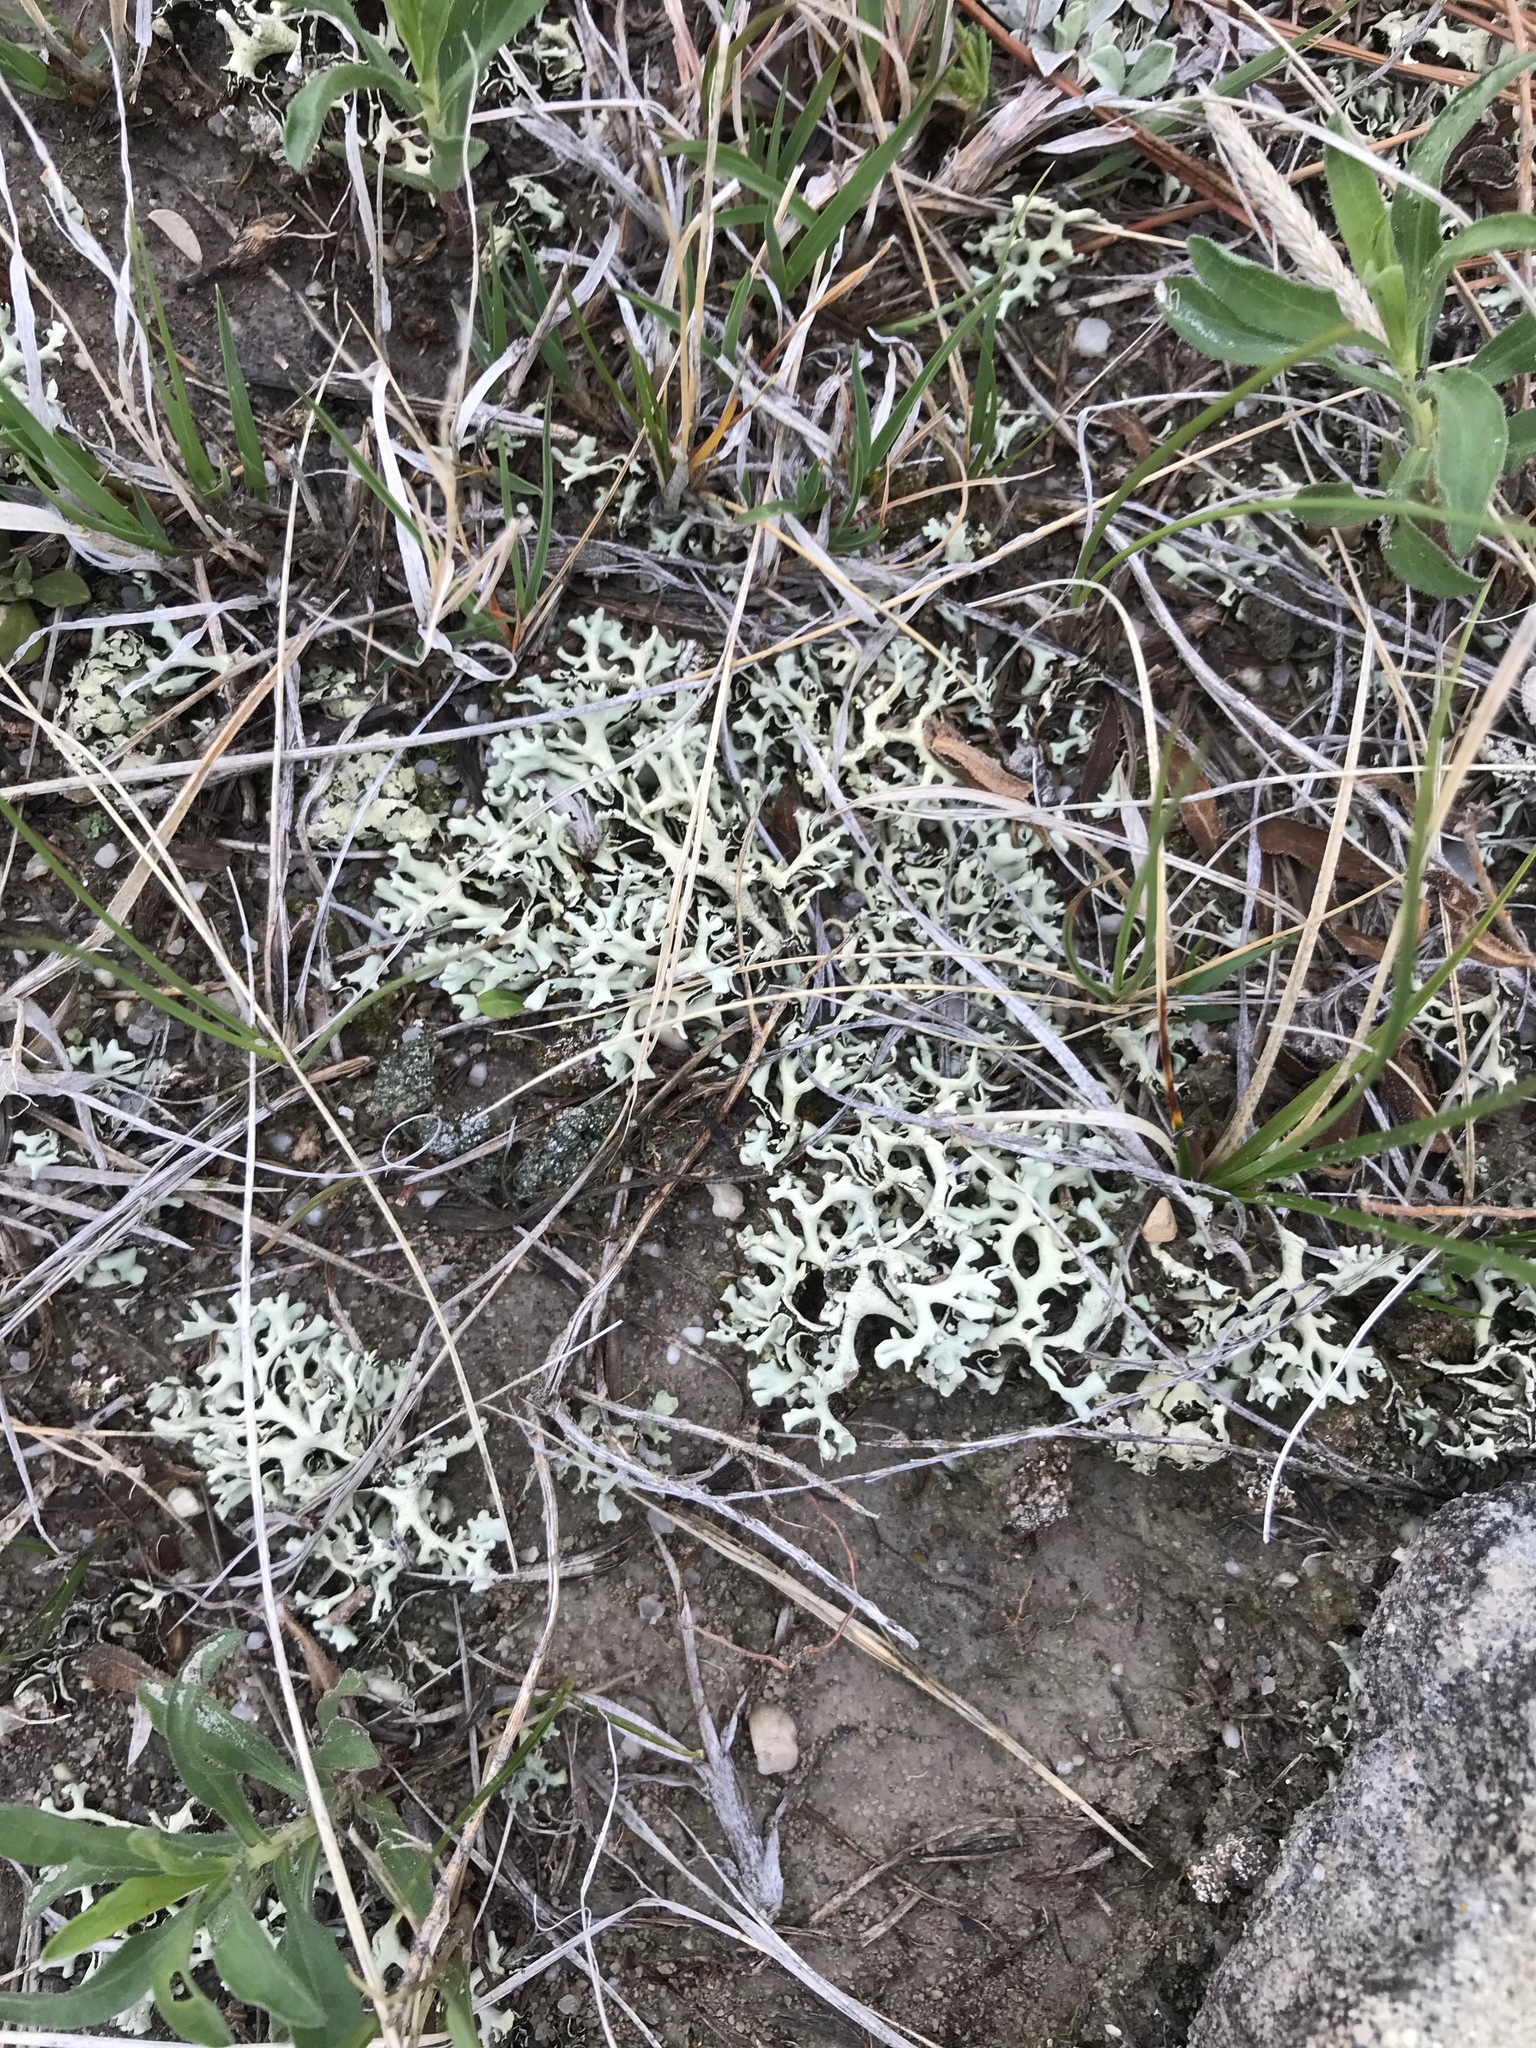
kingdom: Fungi
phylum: Ascomycota
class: Lecanoromycetes
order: Lecanorales
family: Parmeliaceae
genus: Xanthoparmelia
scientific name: Xanthoparmelia chlorochroa
